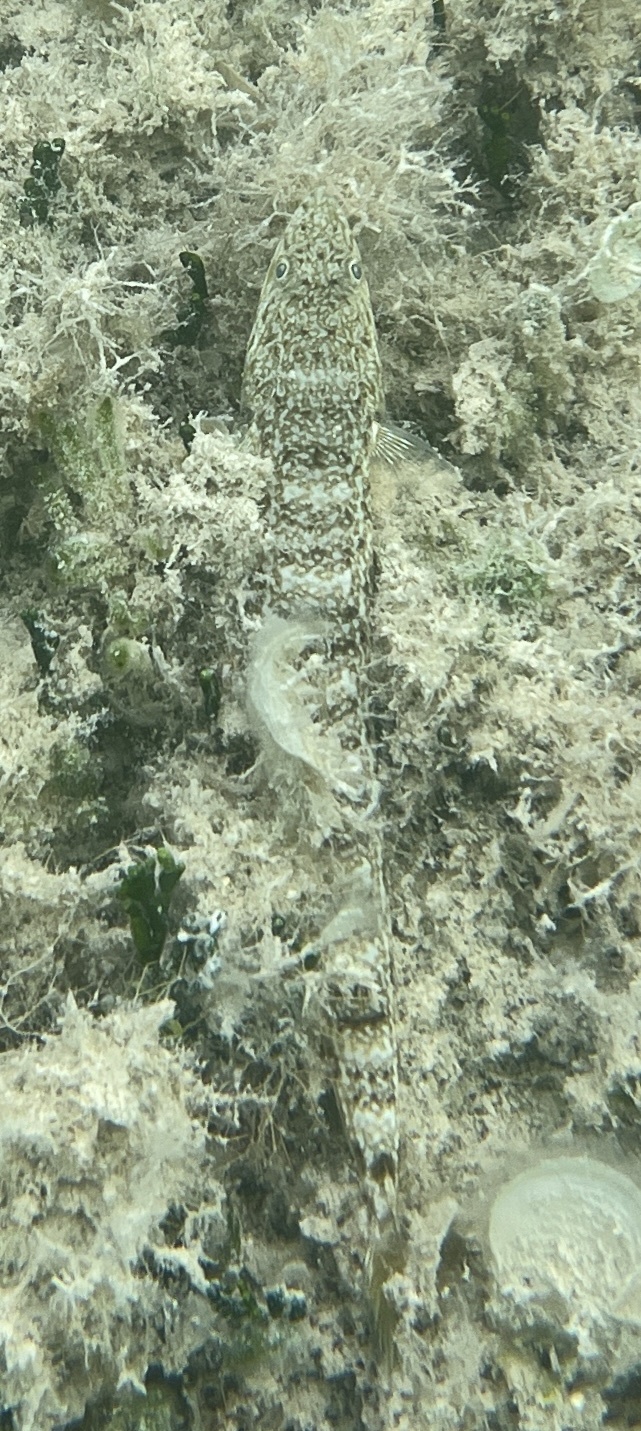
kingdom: Animalia
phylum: Chordata
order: Aulopiformes
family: Synodontidae
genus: Synodus
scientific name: Synodus intermedius
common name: Sand diver
